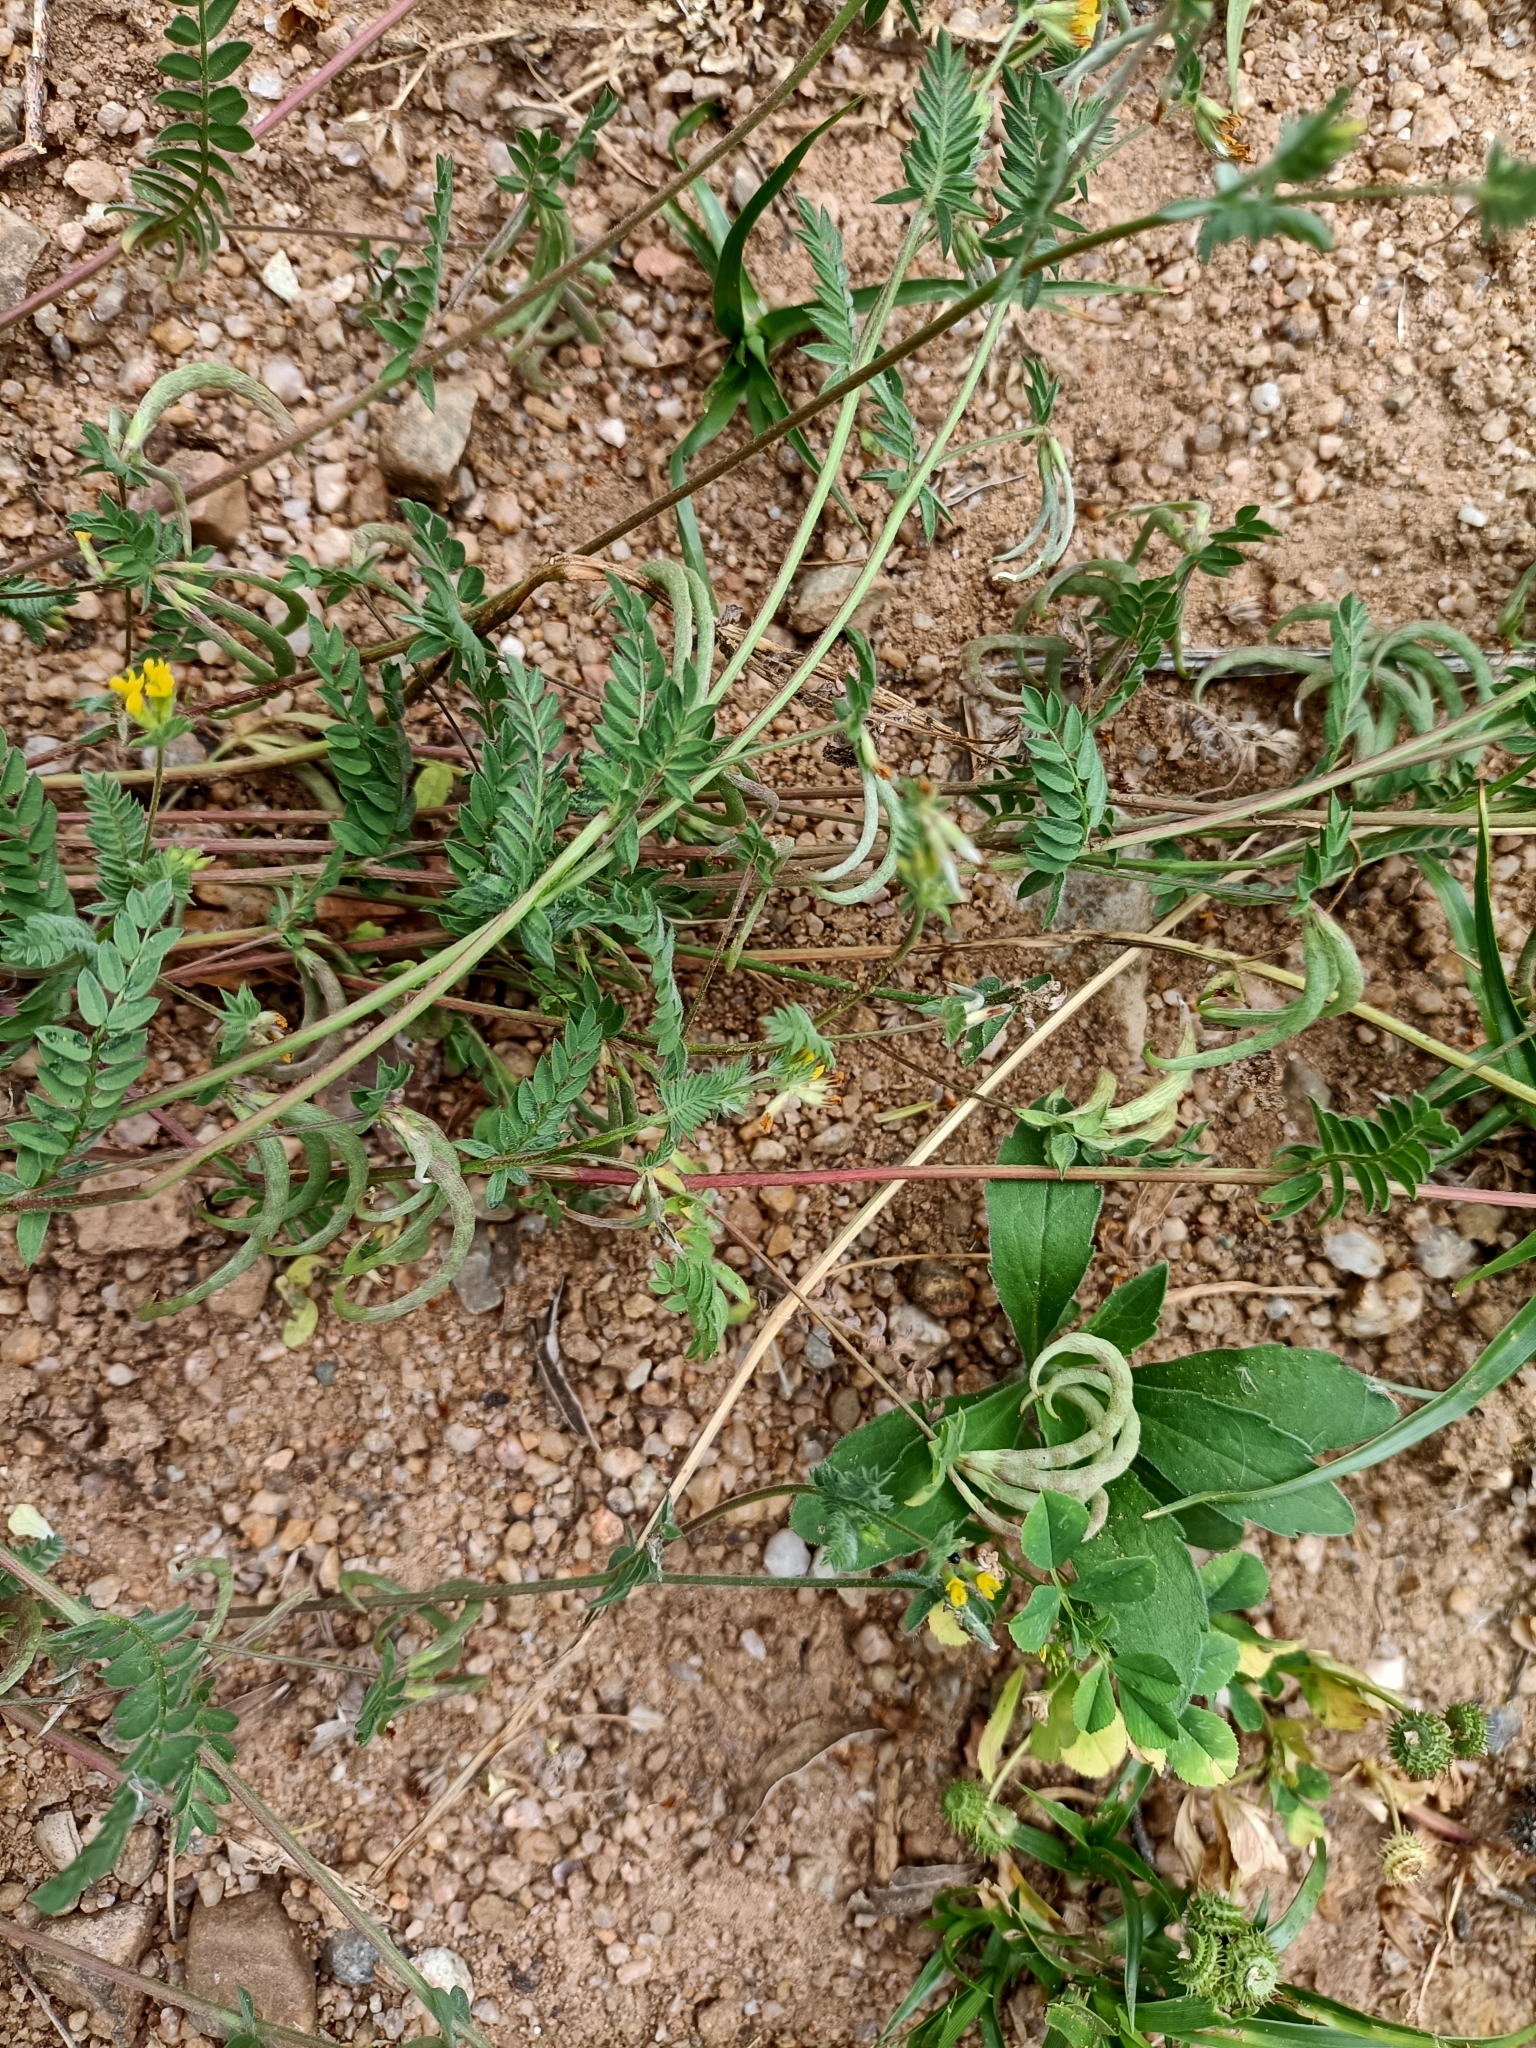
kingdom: Plantae
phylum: Tracheophyta
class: Magnoliopsida
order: Fabales
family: Fabaceae
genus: Ornithopus
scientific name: Ornithopus compressus
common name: Yellow serradella
